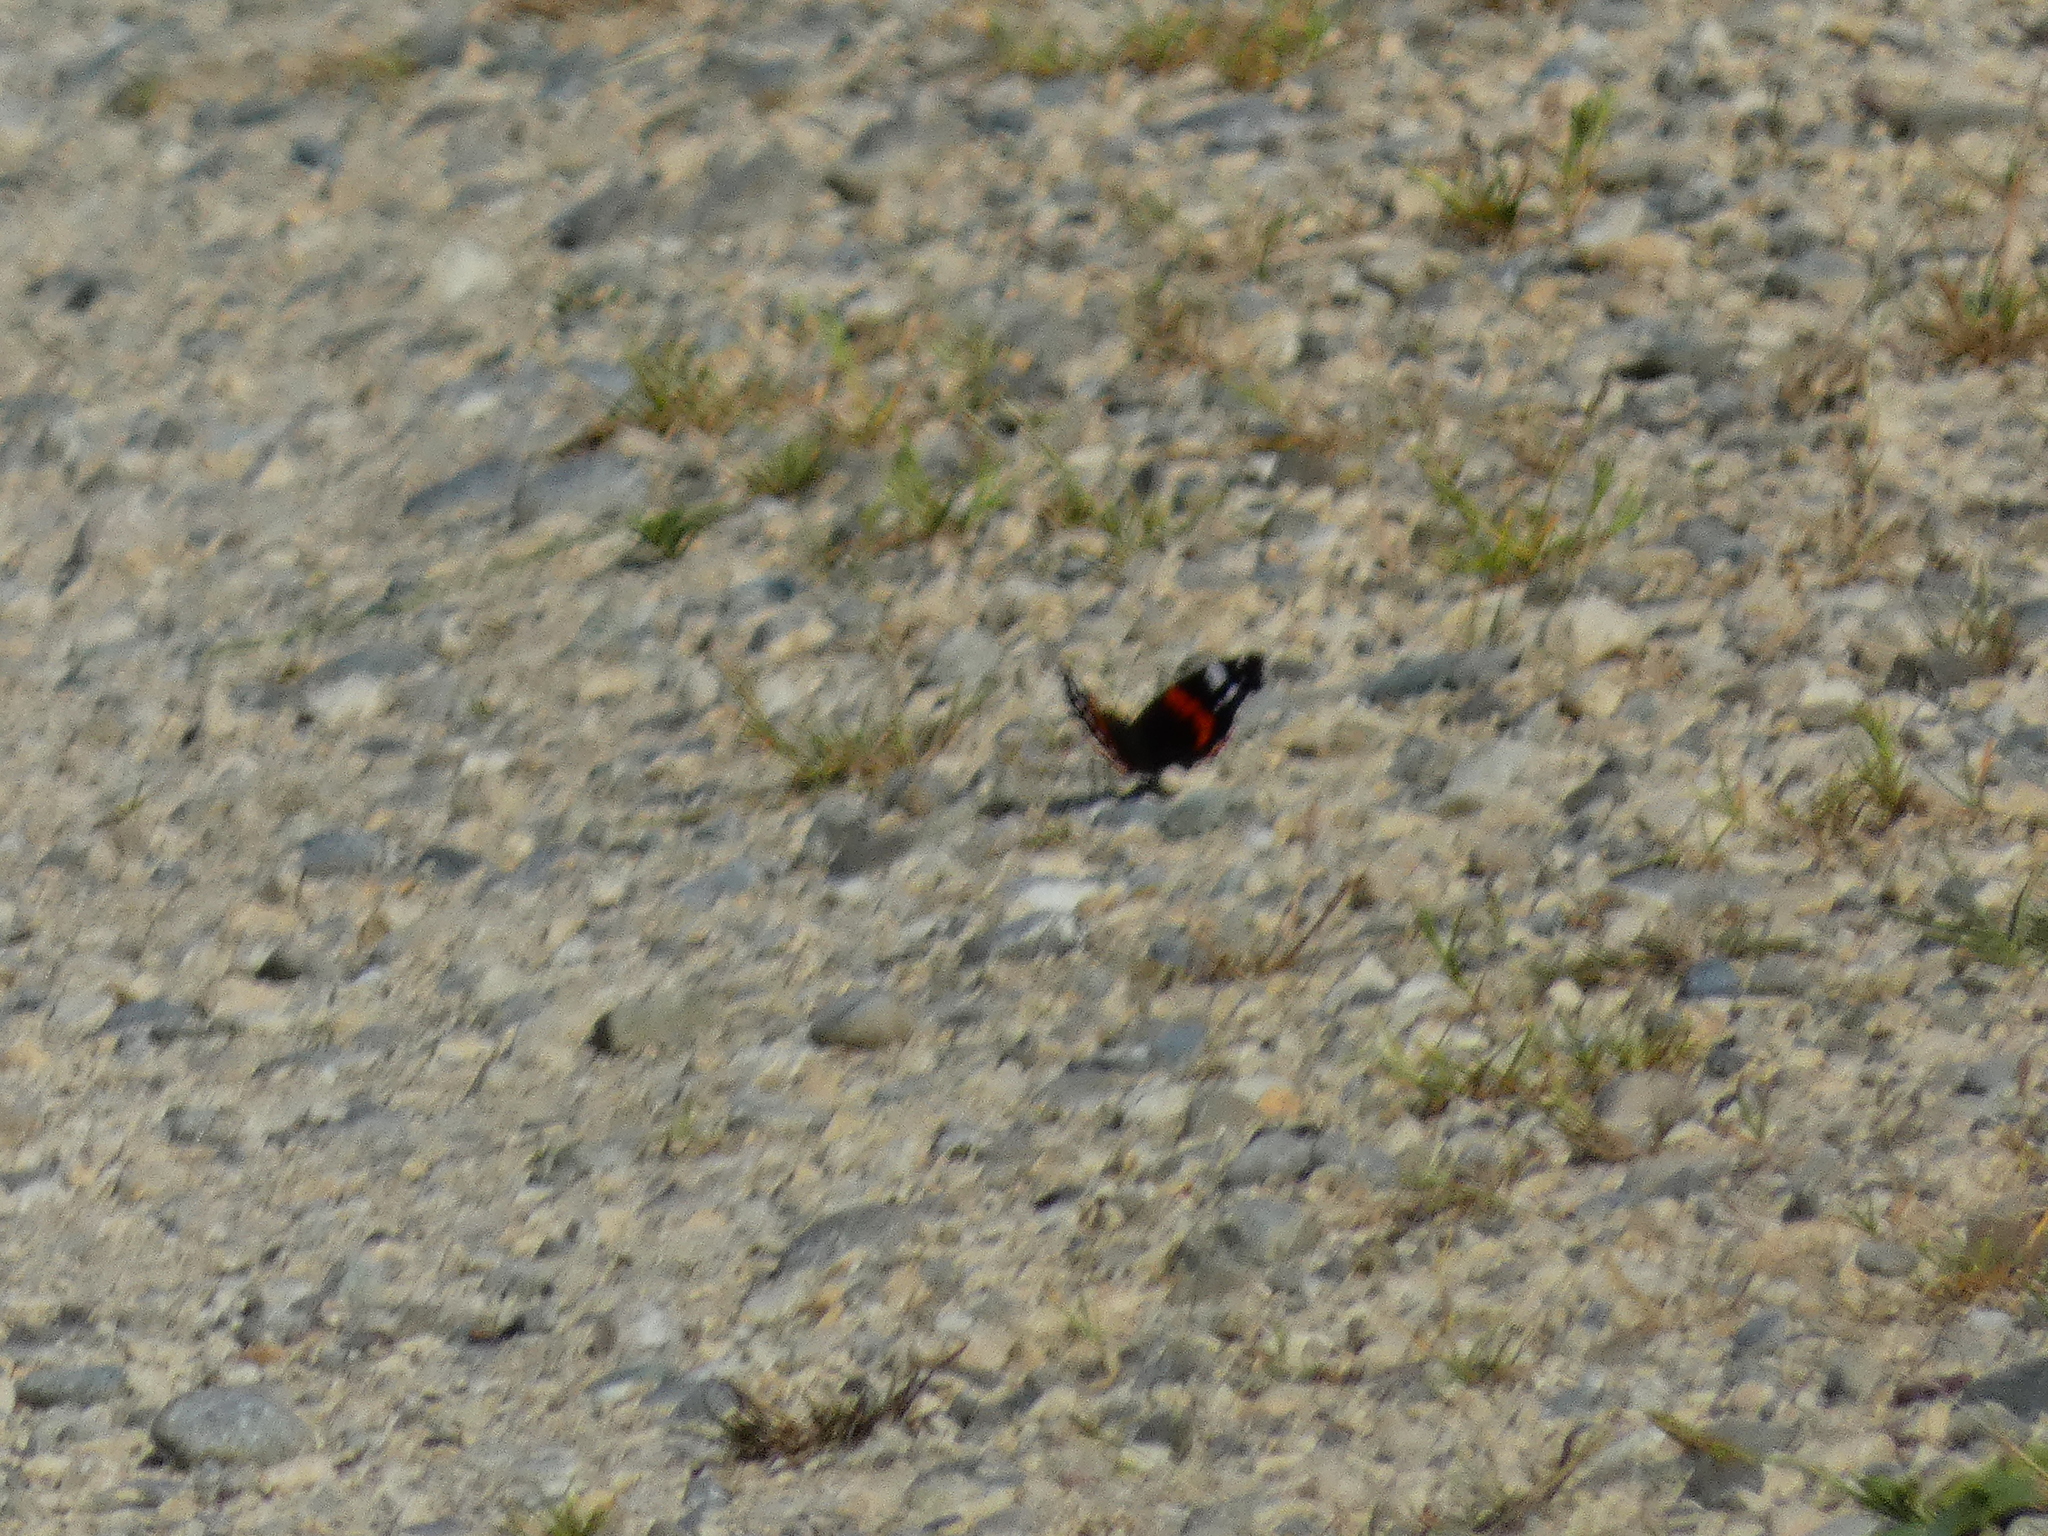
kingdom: Animalia
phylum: Arthropoda
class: Insecta
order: Lepidoptera
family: Nymphalidae
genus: Vanessa
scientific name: Vanessa atalanta
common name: Red admiral
